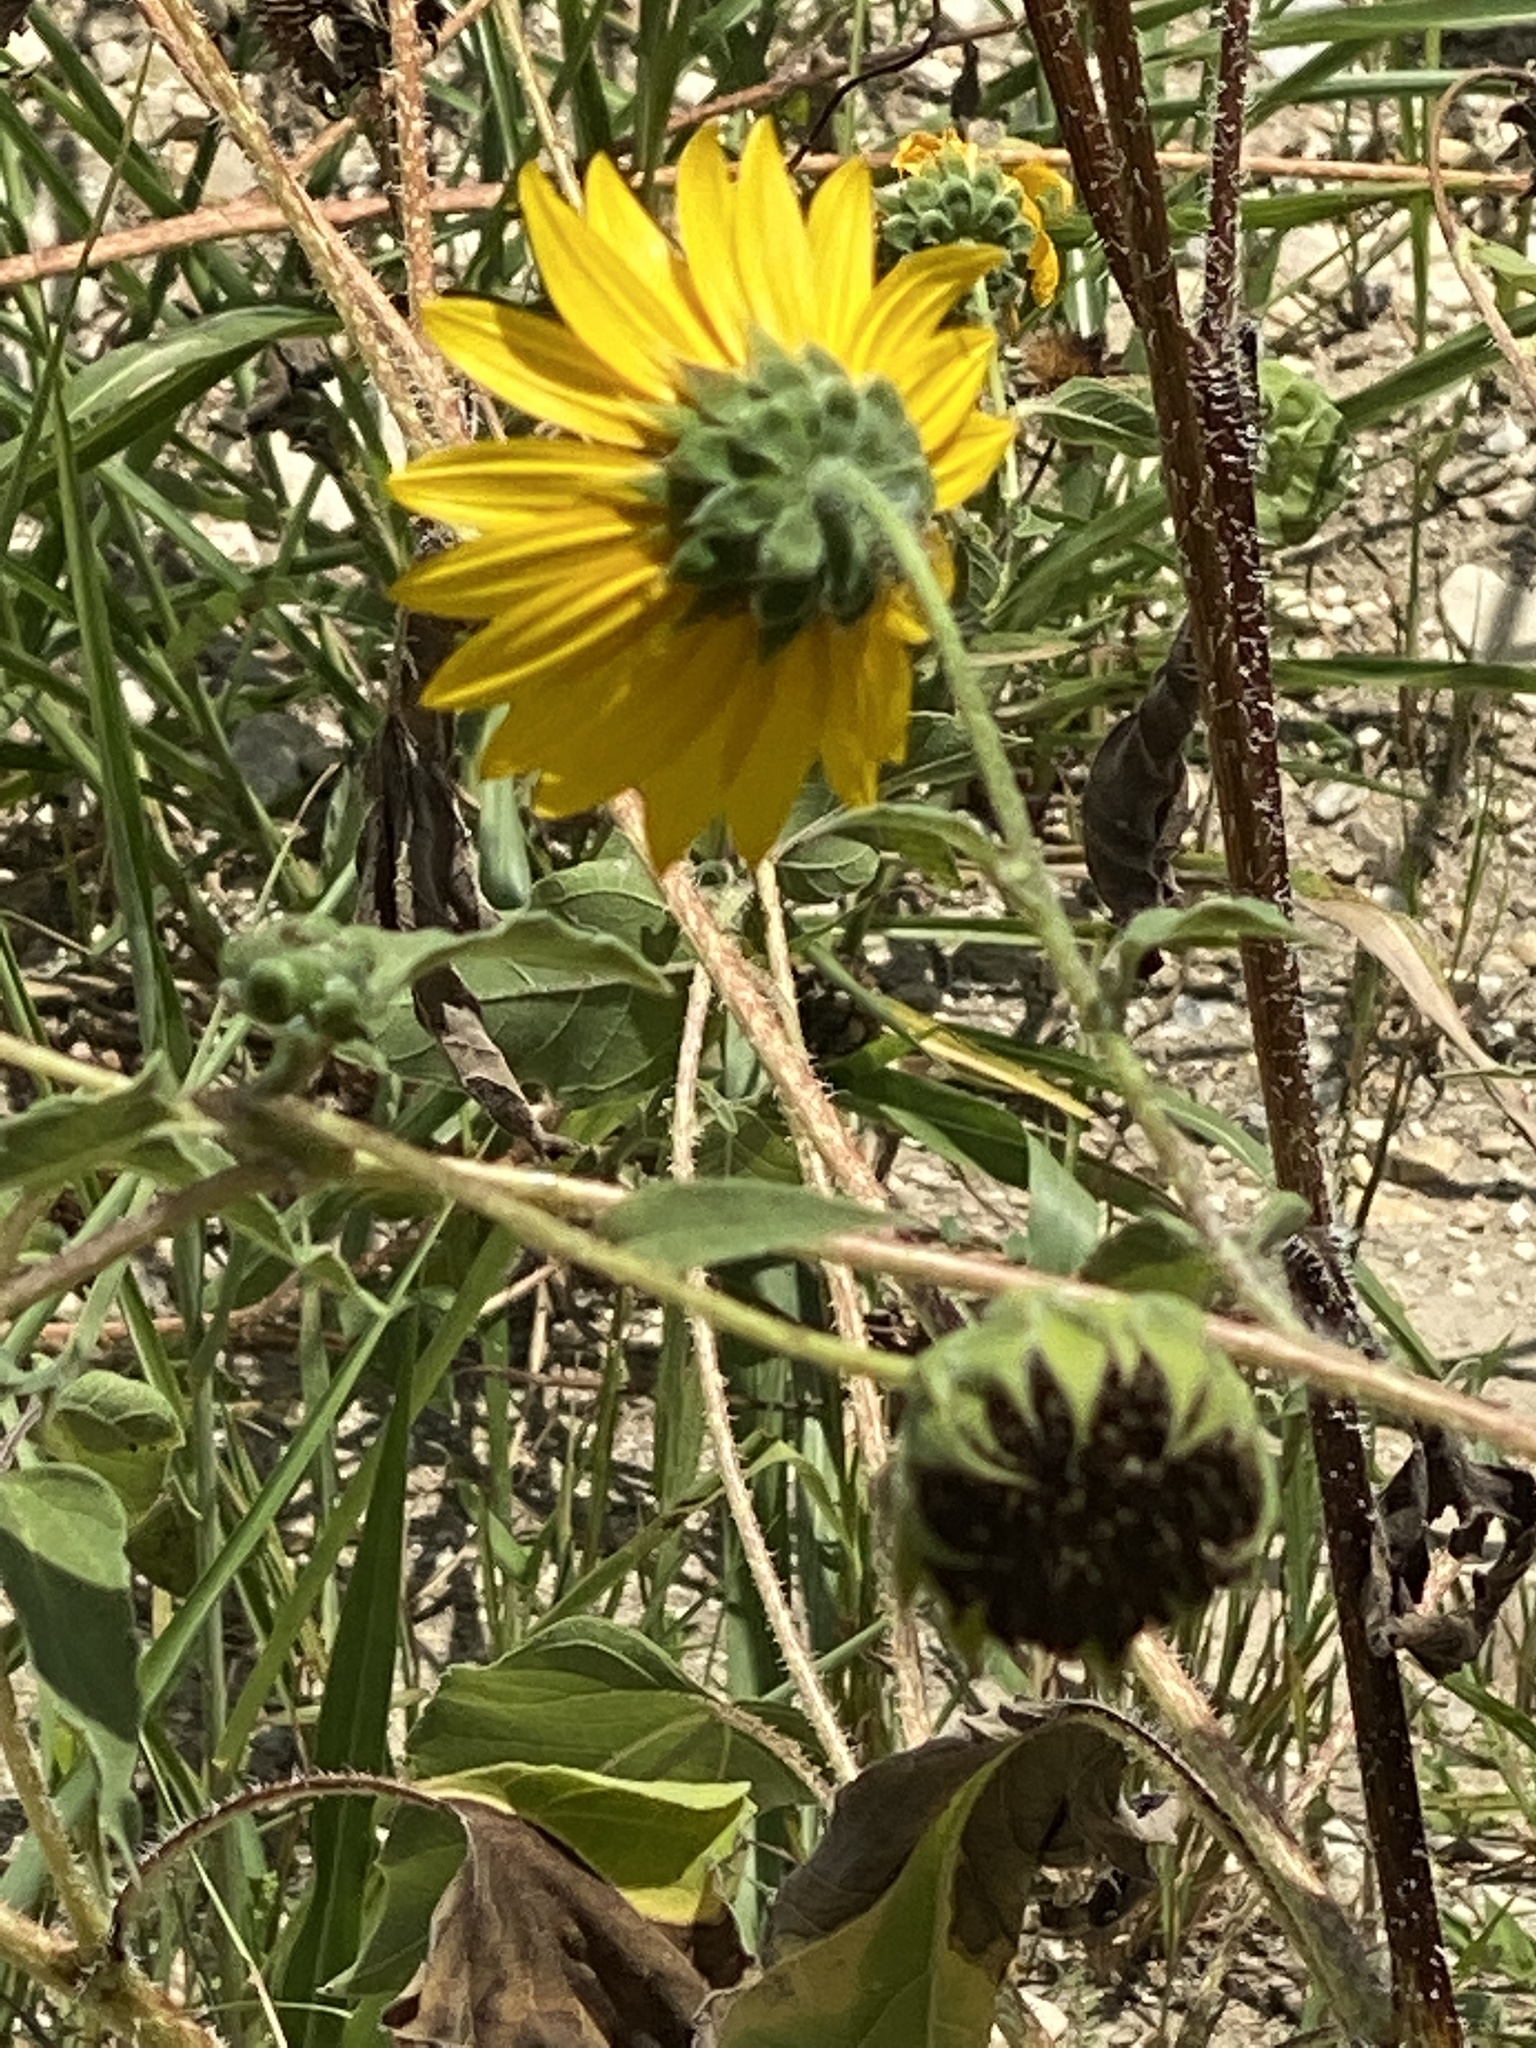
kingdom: Plantae
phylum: Tracheophyta
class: Magnoliopsida
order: Asterales
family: Asteraceae
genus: Helianthus
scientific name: Helianthus annuus
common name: Sunflower
